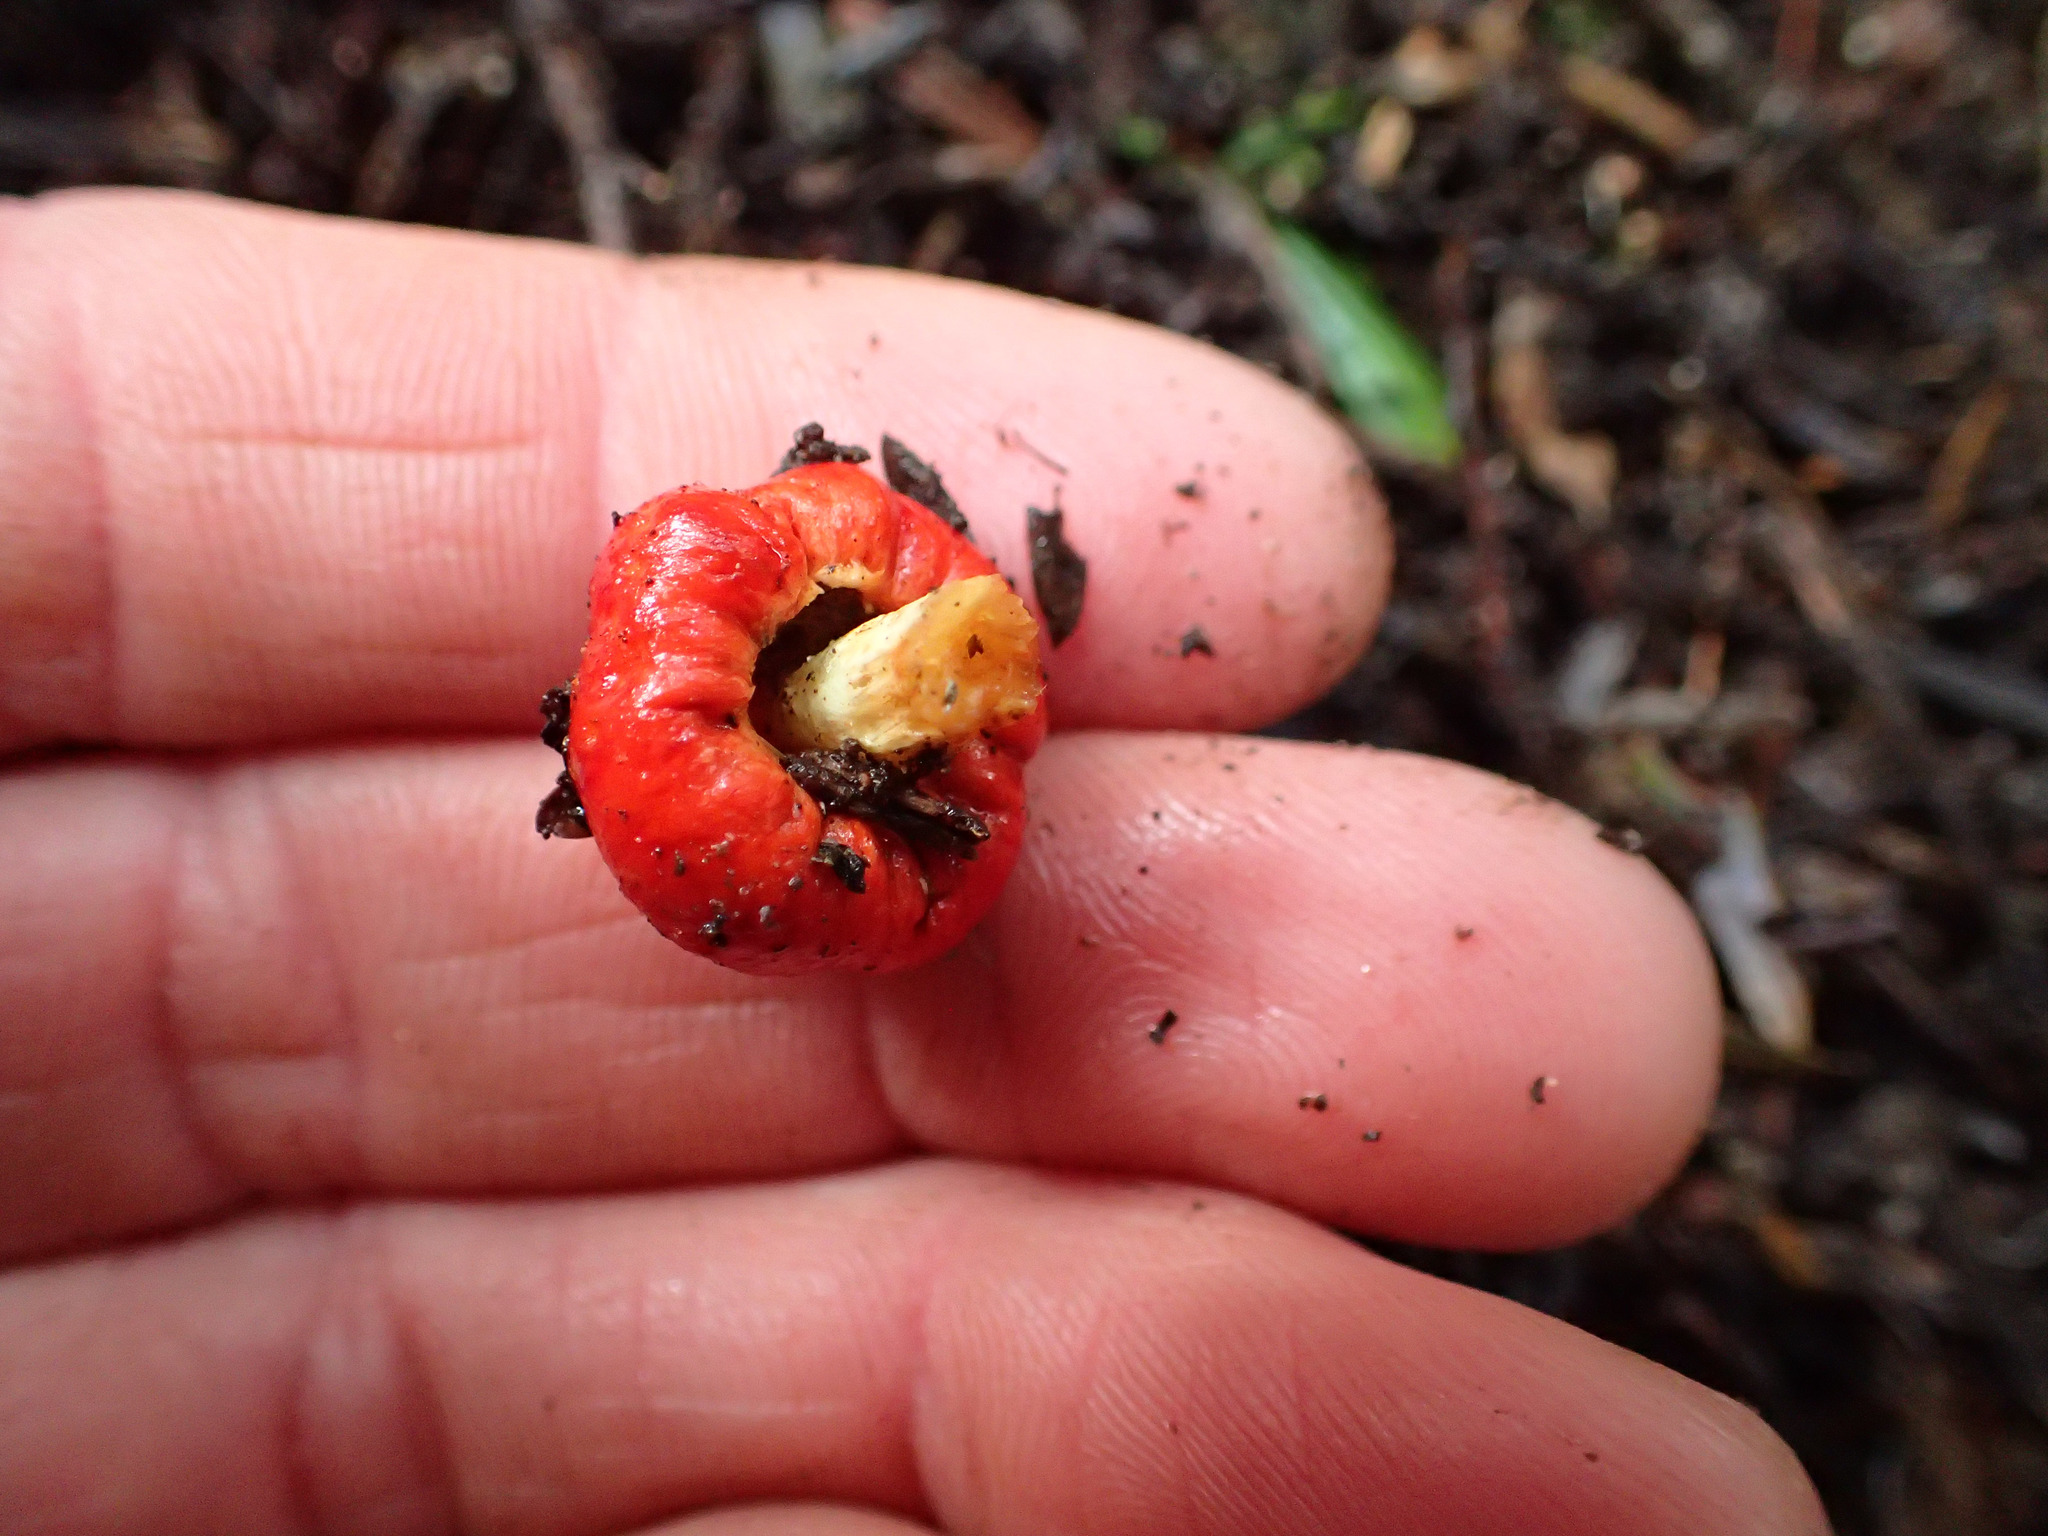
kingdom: Fungi
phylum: Basidiomycota
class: Agaricomycetes
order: Agaricales
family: Strophariaceae
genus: Leratiomyces
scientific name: Leratiomyces erythrocephalus
